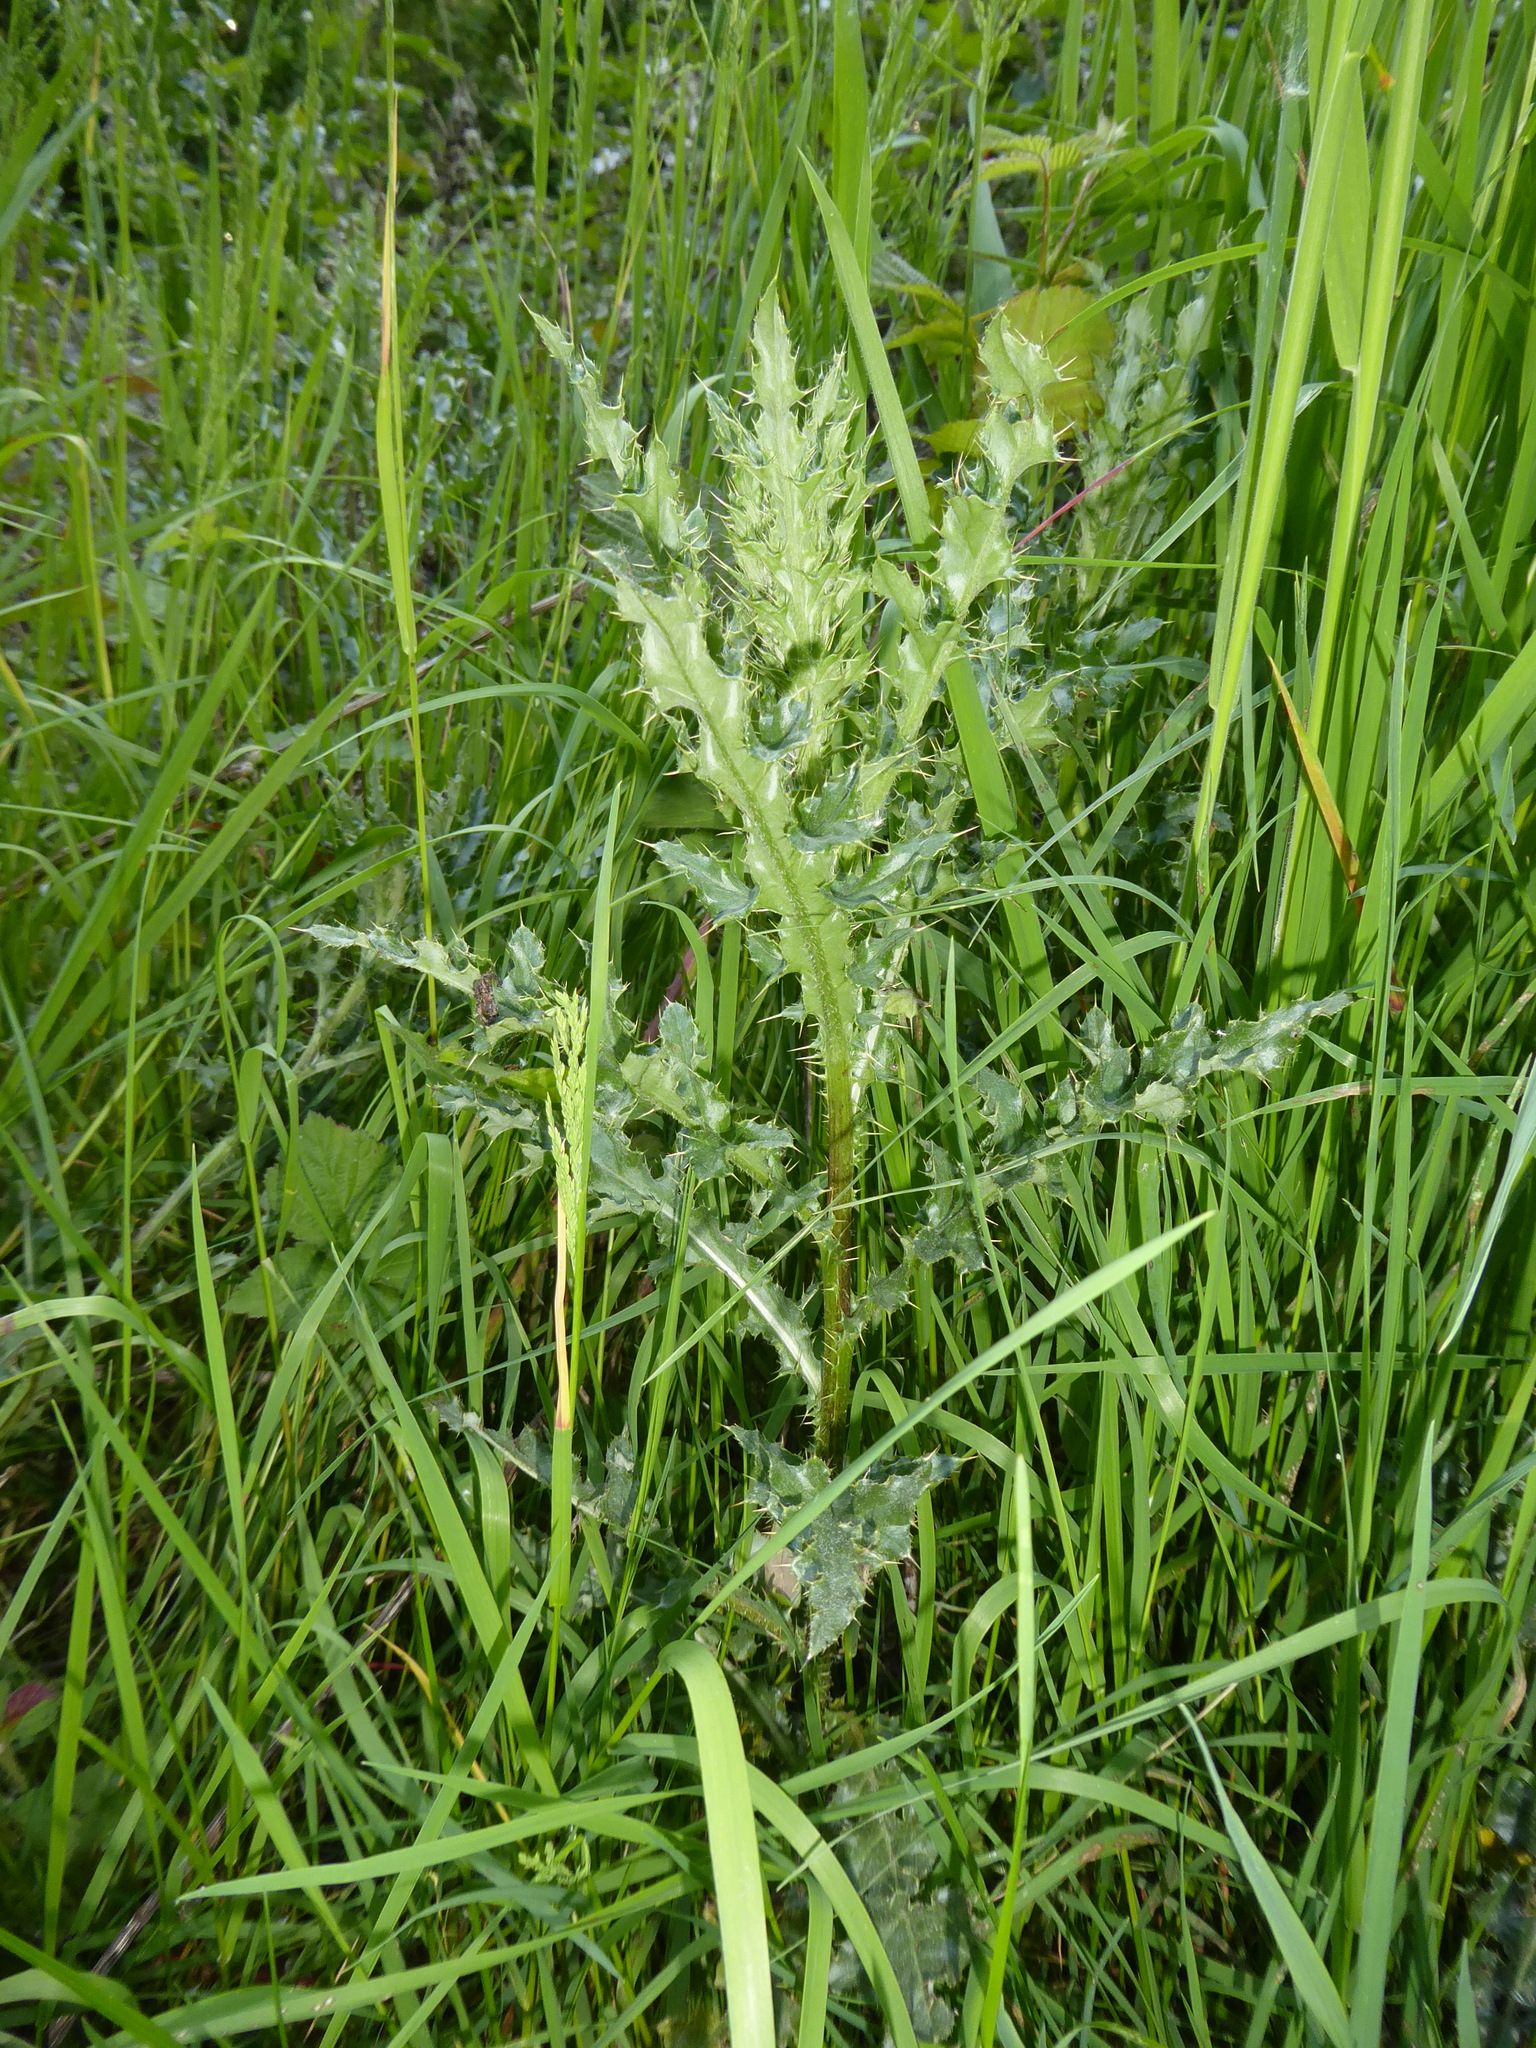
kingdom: Plantae
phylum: Tracheophyta
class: Magnoliopsida
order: Asterales
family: Asteraceae
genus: Cirsium
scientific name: Cirsium arvense
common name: Creeping thistle
